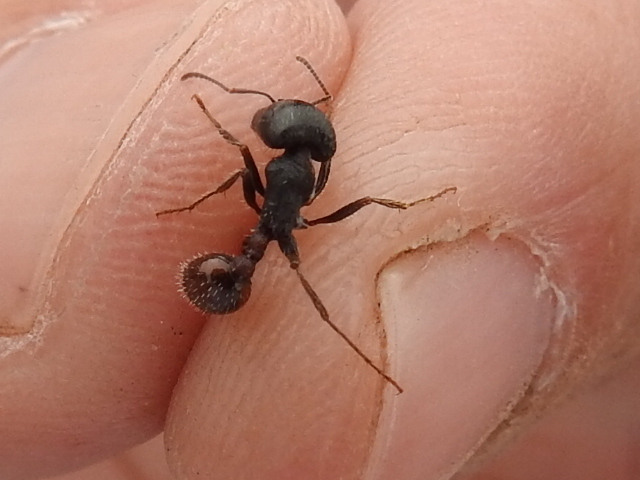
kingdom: Animalia
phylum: Arthropoda
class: Insecta
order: Hymenoptera
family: Formicidae
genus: Pogonomyrmex
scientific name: Pogonomyrmex rugosus
